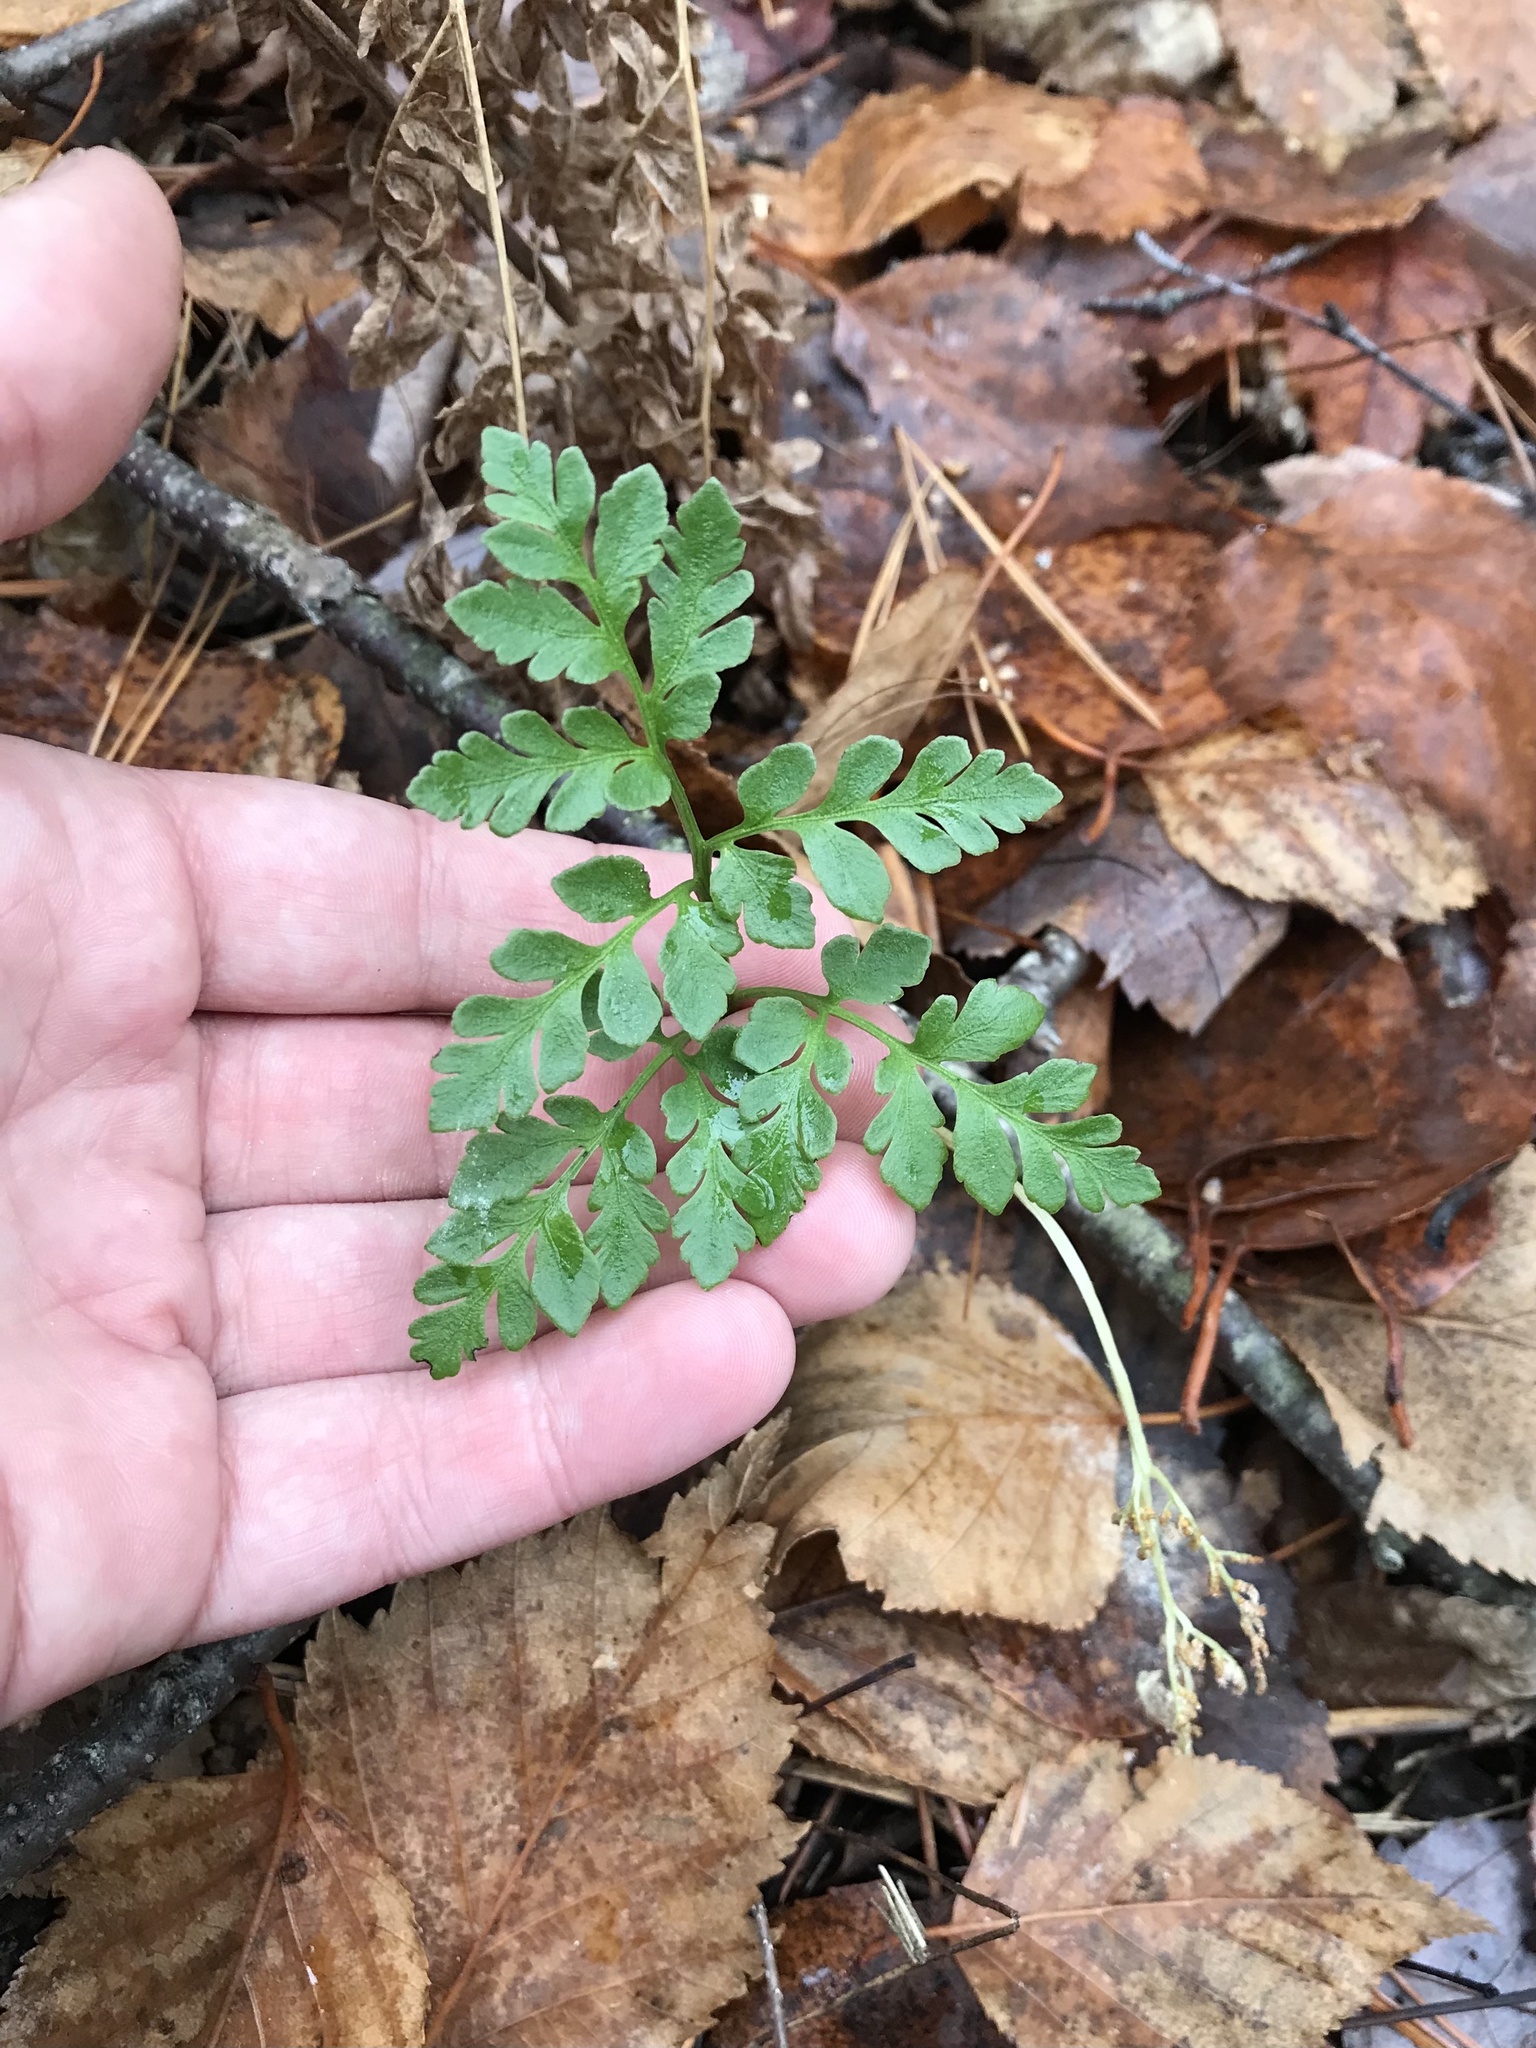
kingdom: Plantae
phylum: Tracheophyta
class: Polypodiopsida
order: Ophioglossales
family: Ophioglossaceae
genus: Sceptridium
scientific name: Sceptridium multifidum
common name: Leathery grape fern
